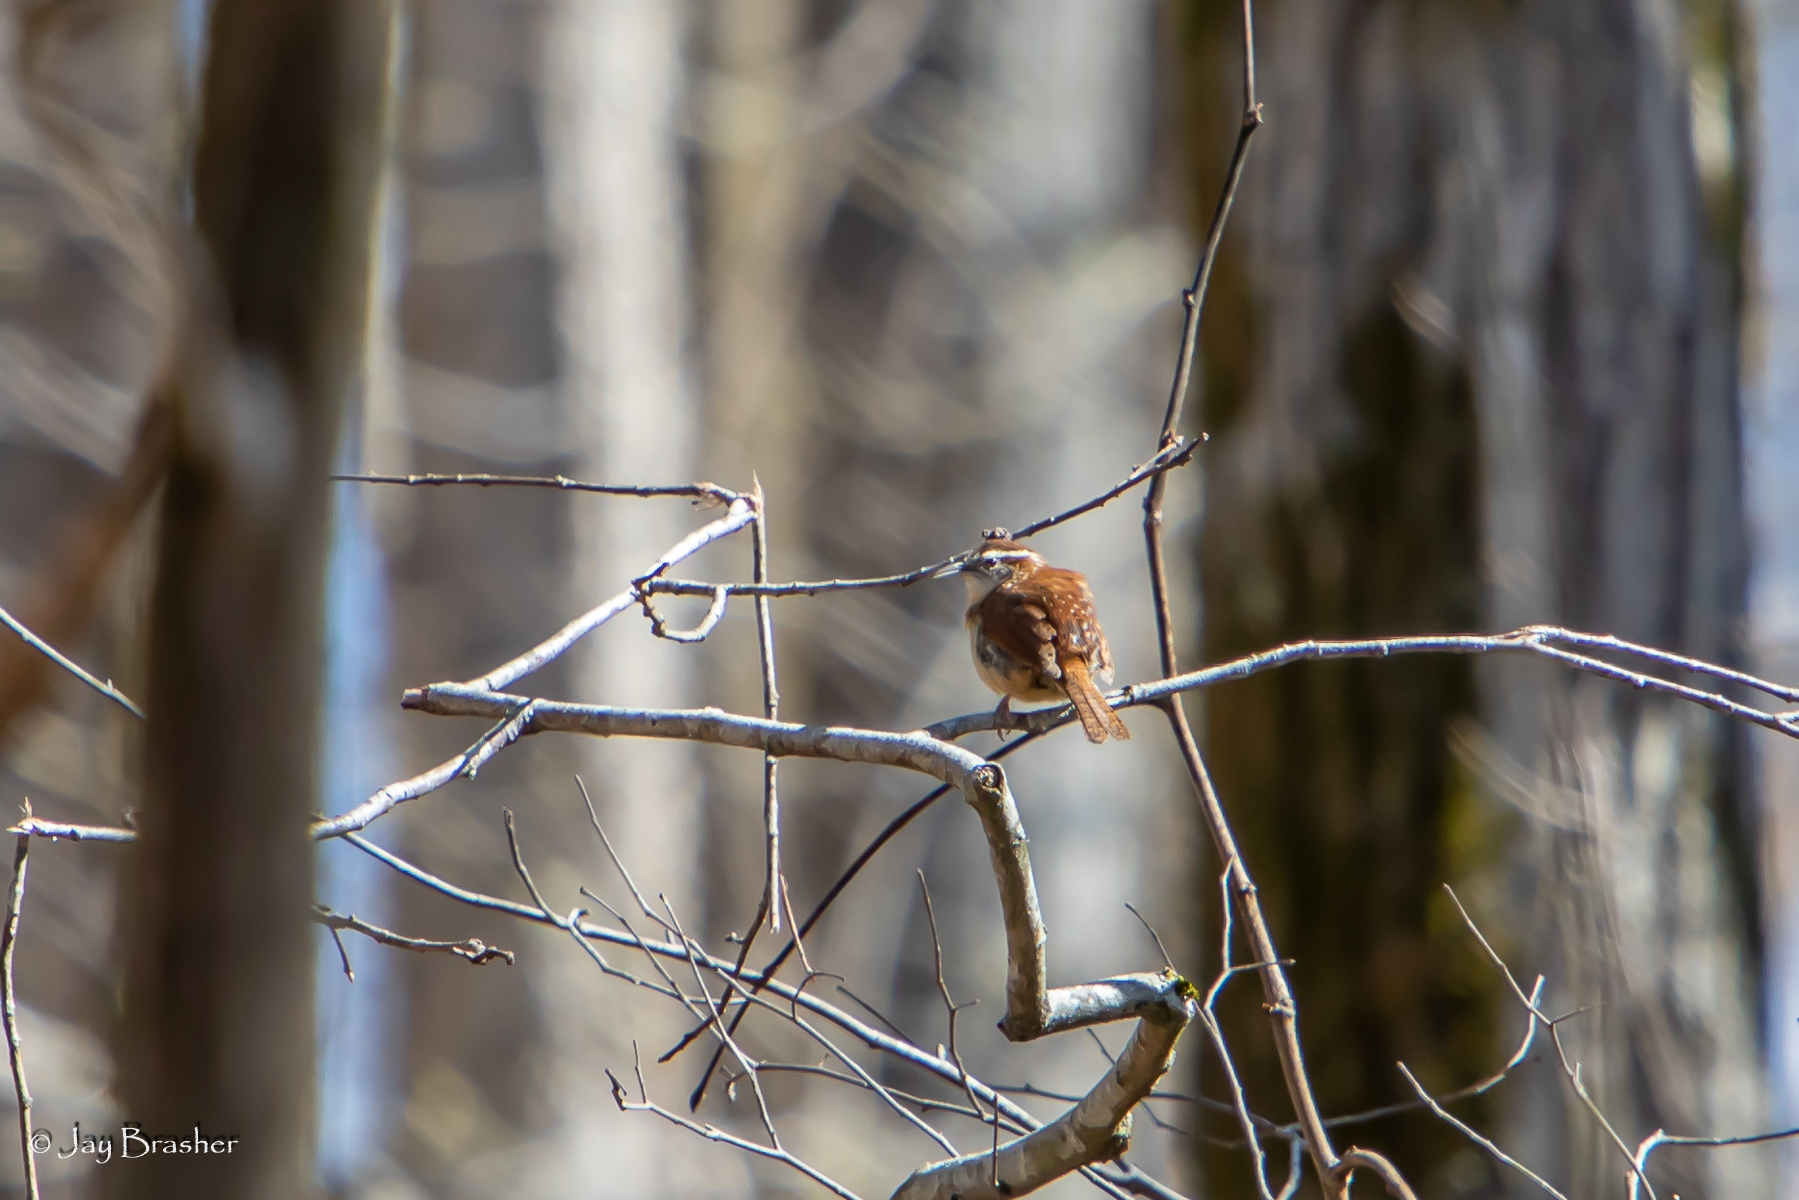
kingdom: Animalia
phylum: Chordata
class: Aves
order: Passeriformes
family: Troglodytidae
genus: Thryothorus
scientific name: Thryothorus ludovicianus
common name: Carolina wren
